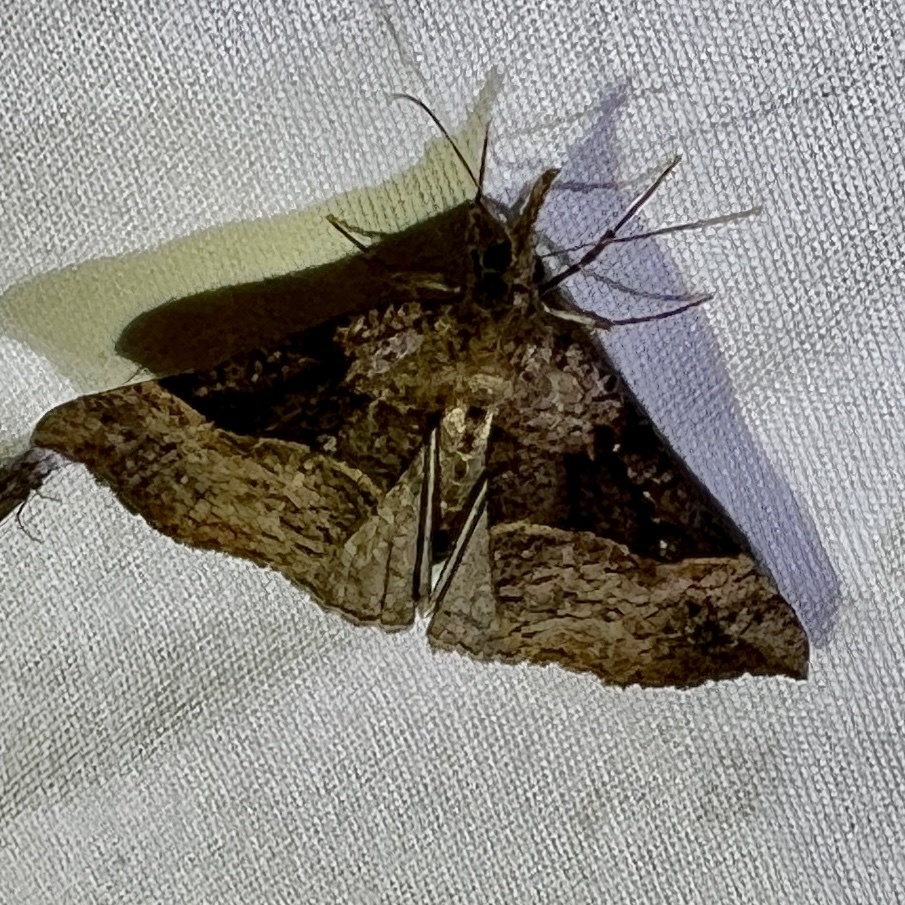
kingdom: Animalia
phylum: Arthropoda
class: Insecta
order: Lepidoptera
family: Erebidae
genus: Hypena
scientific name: Hypena edictalis
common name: Large snout
